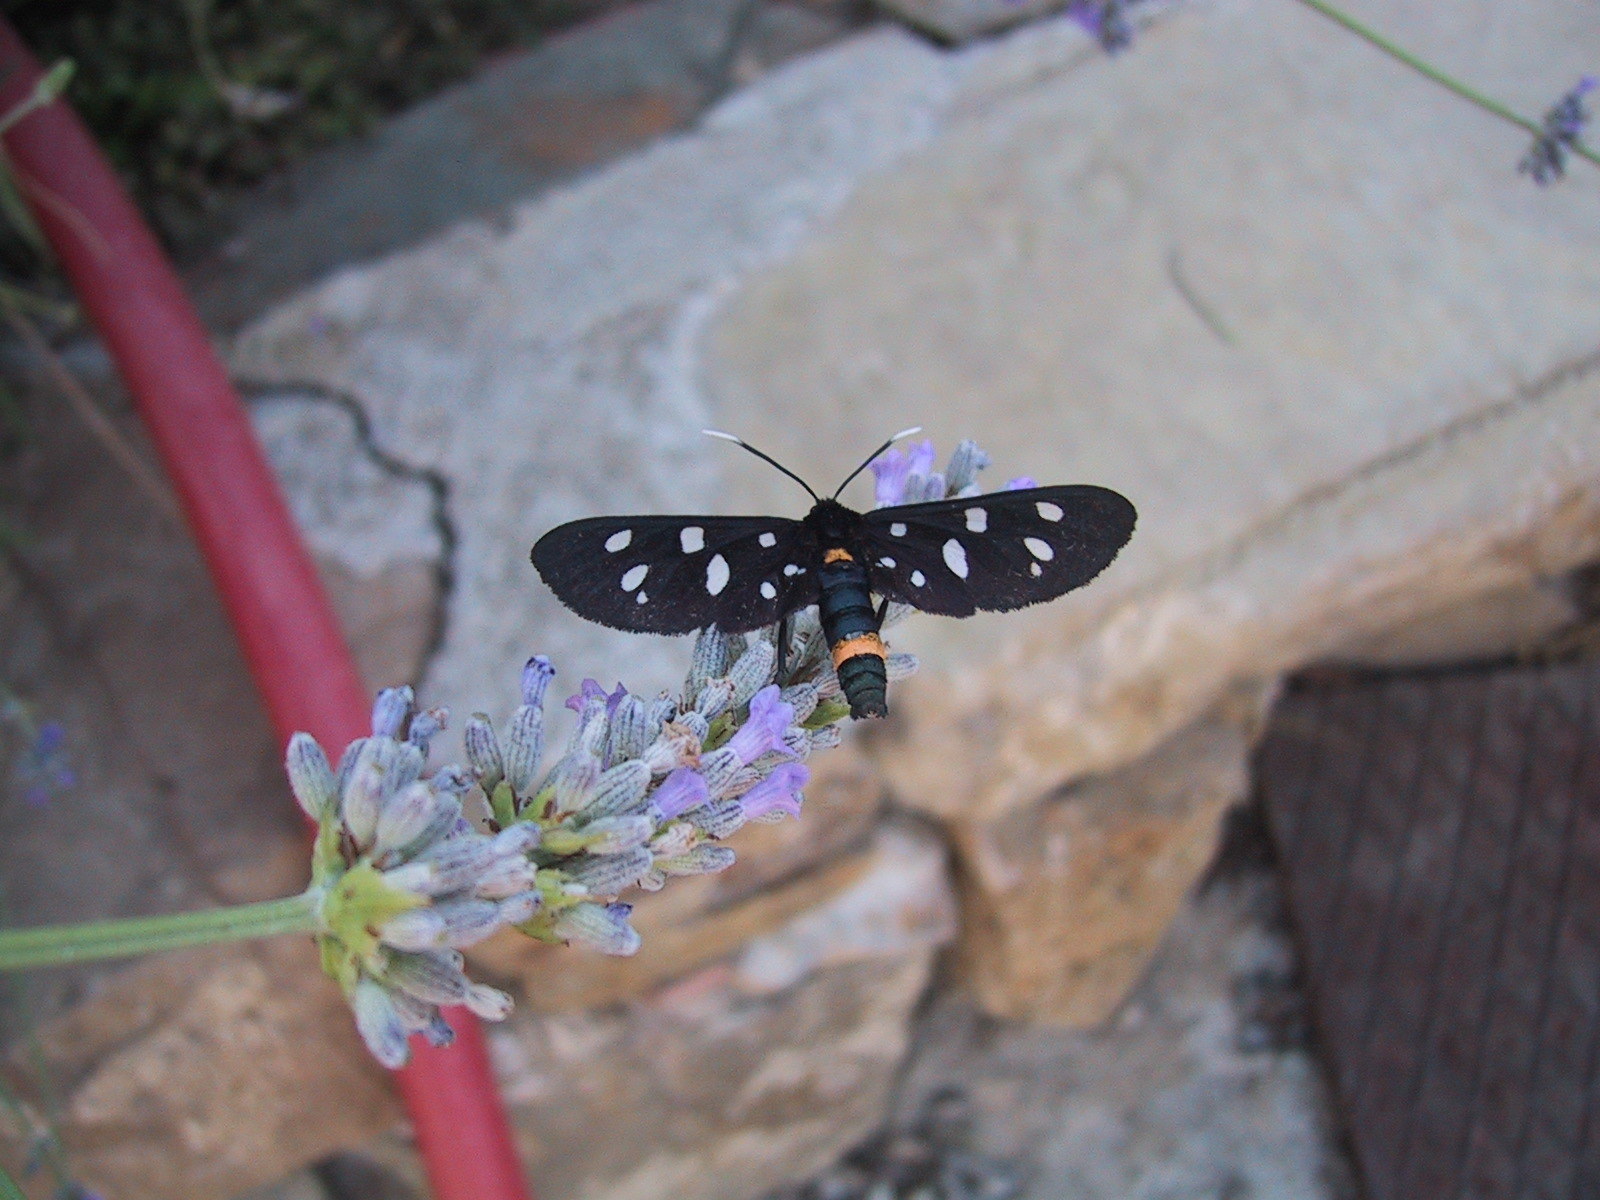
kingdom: Animalia
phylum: Arthropoda
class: Insecta
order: Lepidoptera
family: Erebidae
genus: Amata
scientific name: Amata phegea
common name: Nine-spotted
